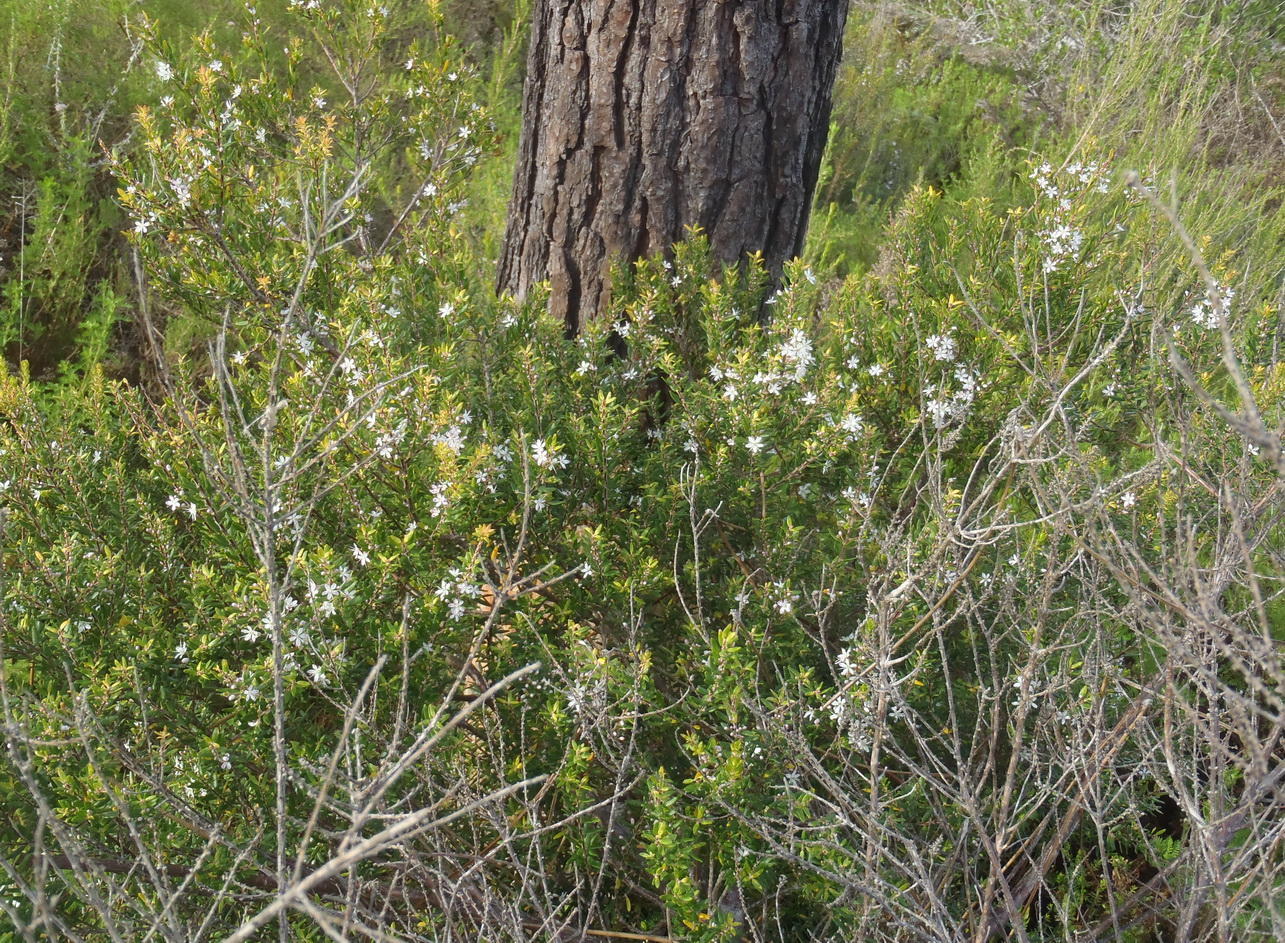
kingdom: Plantae
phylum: Tracheophyta
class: Magnoliopsida
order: Sapindales
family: Rutaceae
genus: Agathosma
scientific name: Agathosma ovata
